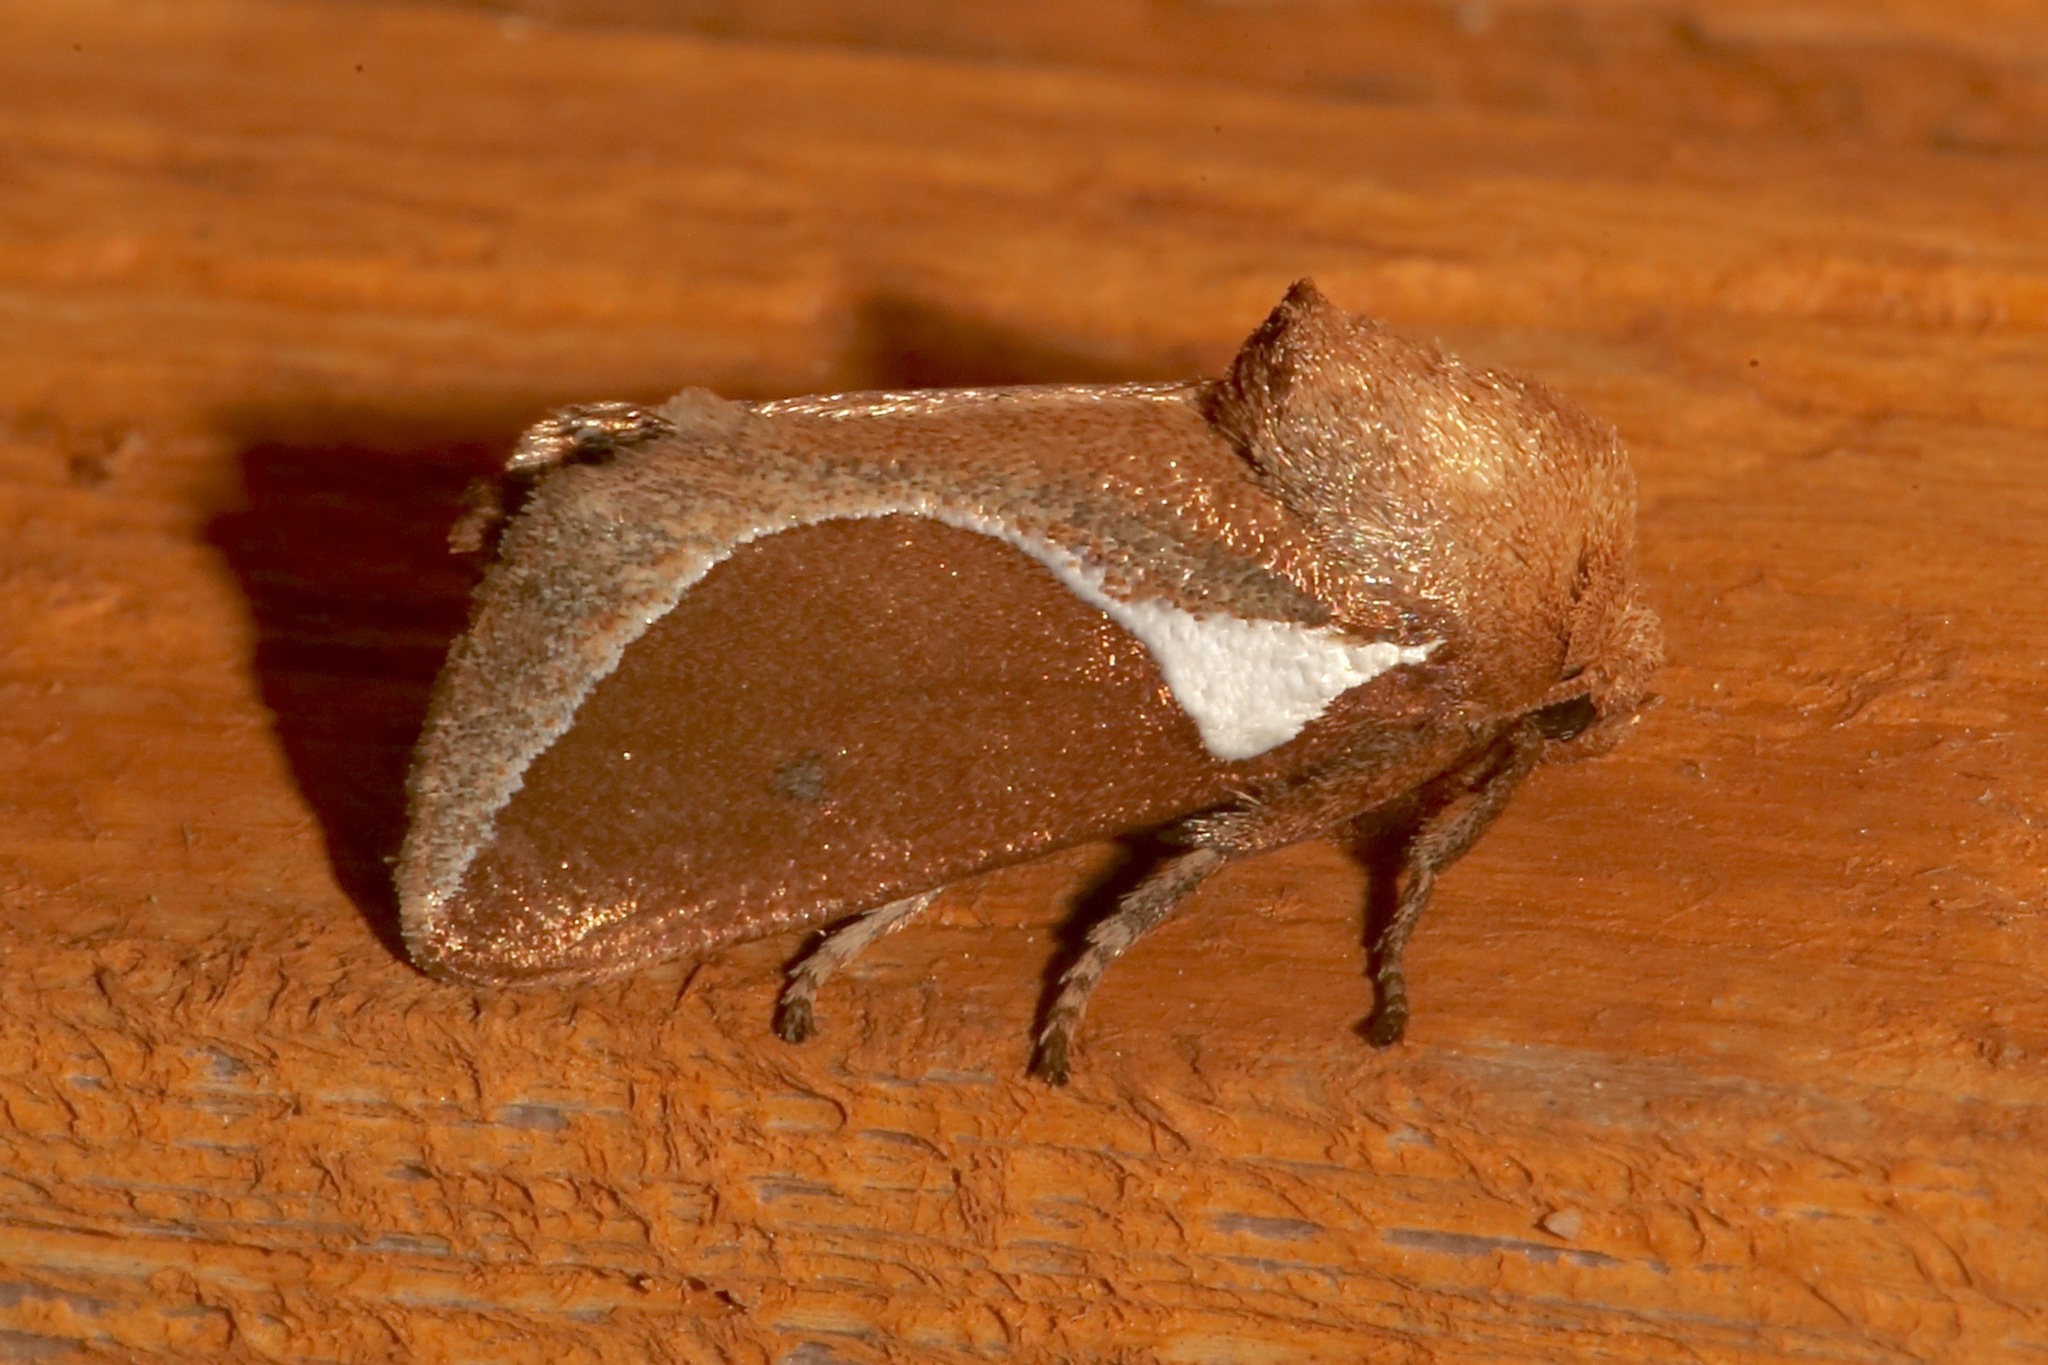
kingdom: Animalia
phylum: Arthropoda
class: Insecta
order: Lepidoptera
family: Limacodidae
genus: Prolimacodes
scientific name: Prolimacodes badia
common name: Skiff moth
